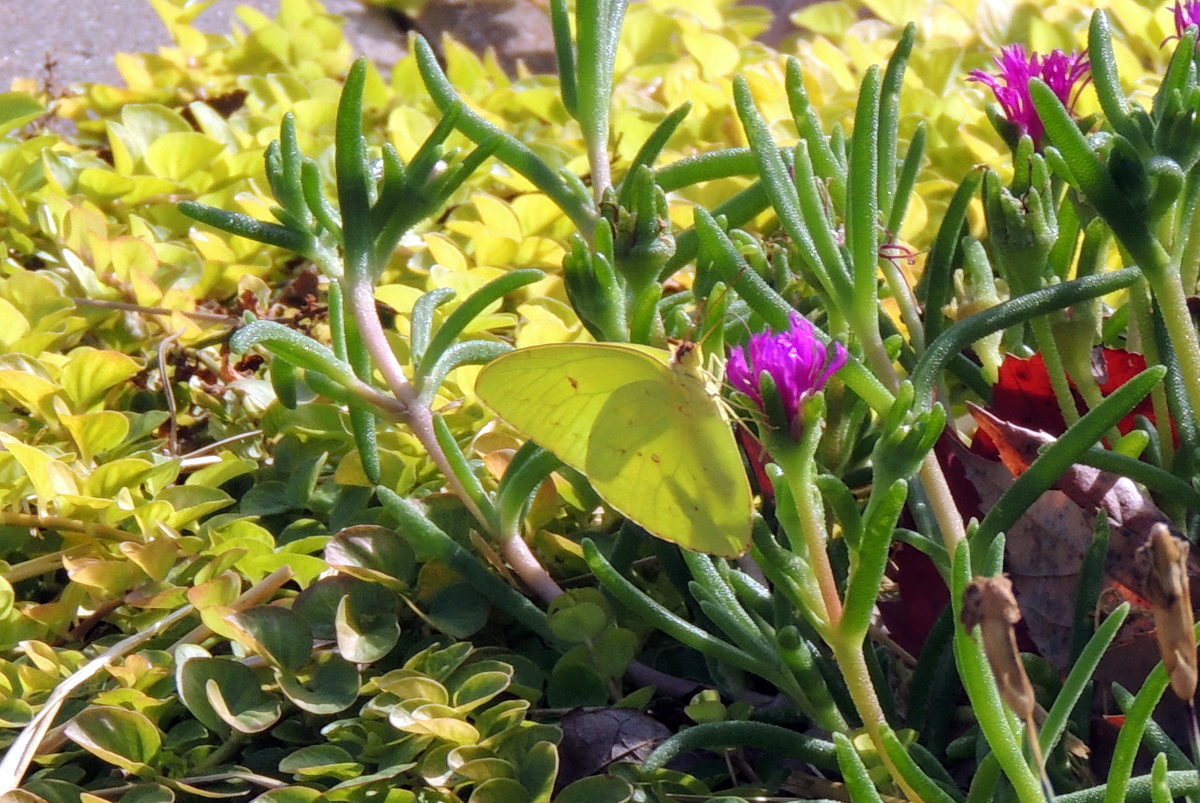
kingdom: Animalia
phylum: Arthropoda
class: Insecta
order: Lepidoptera
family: Pieridae
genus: Phoebis
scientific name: Phoebis sennae
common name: Cloudless sulphur
